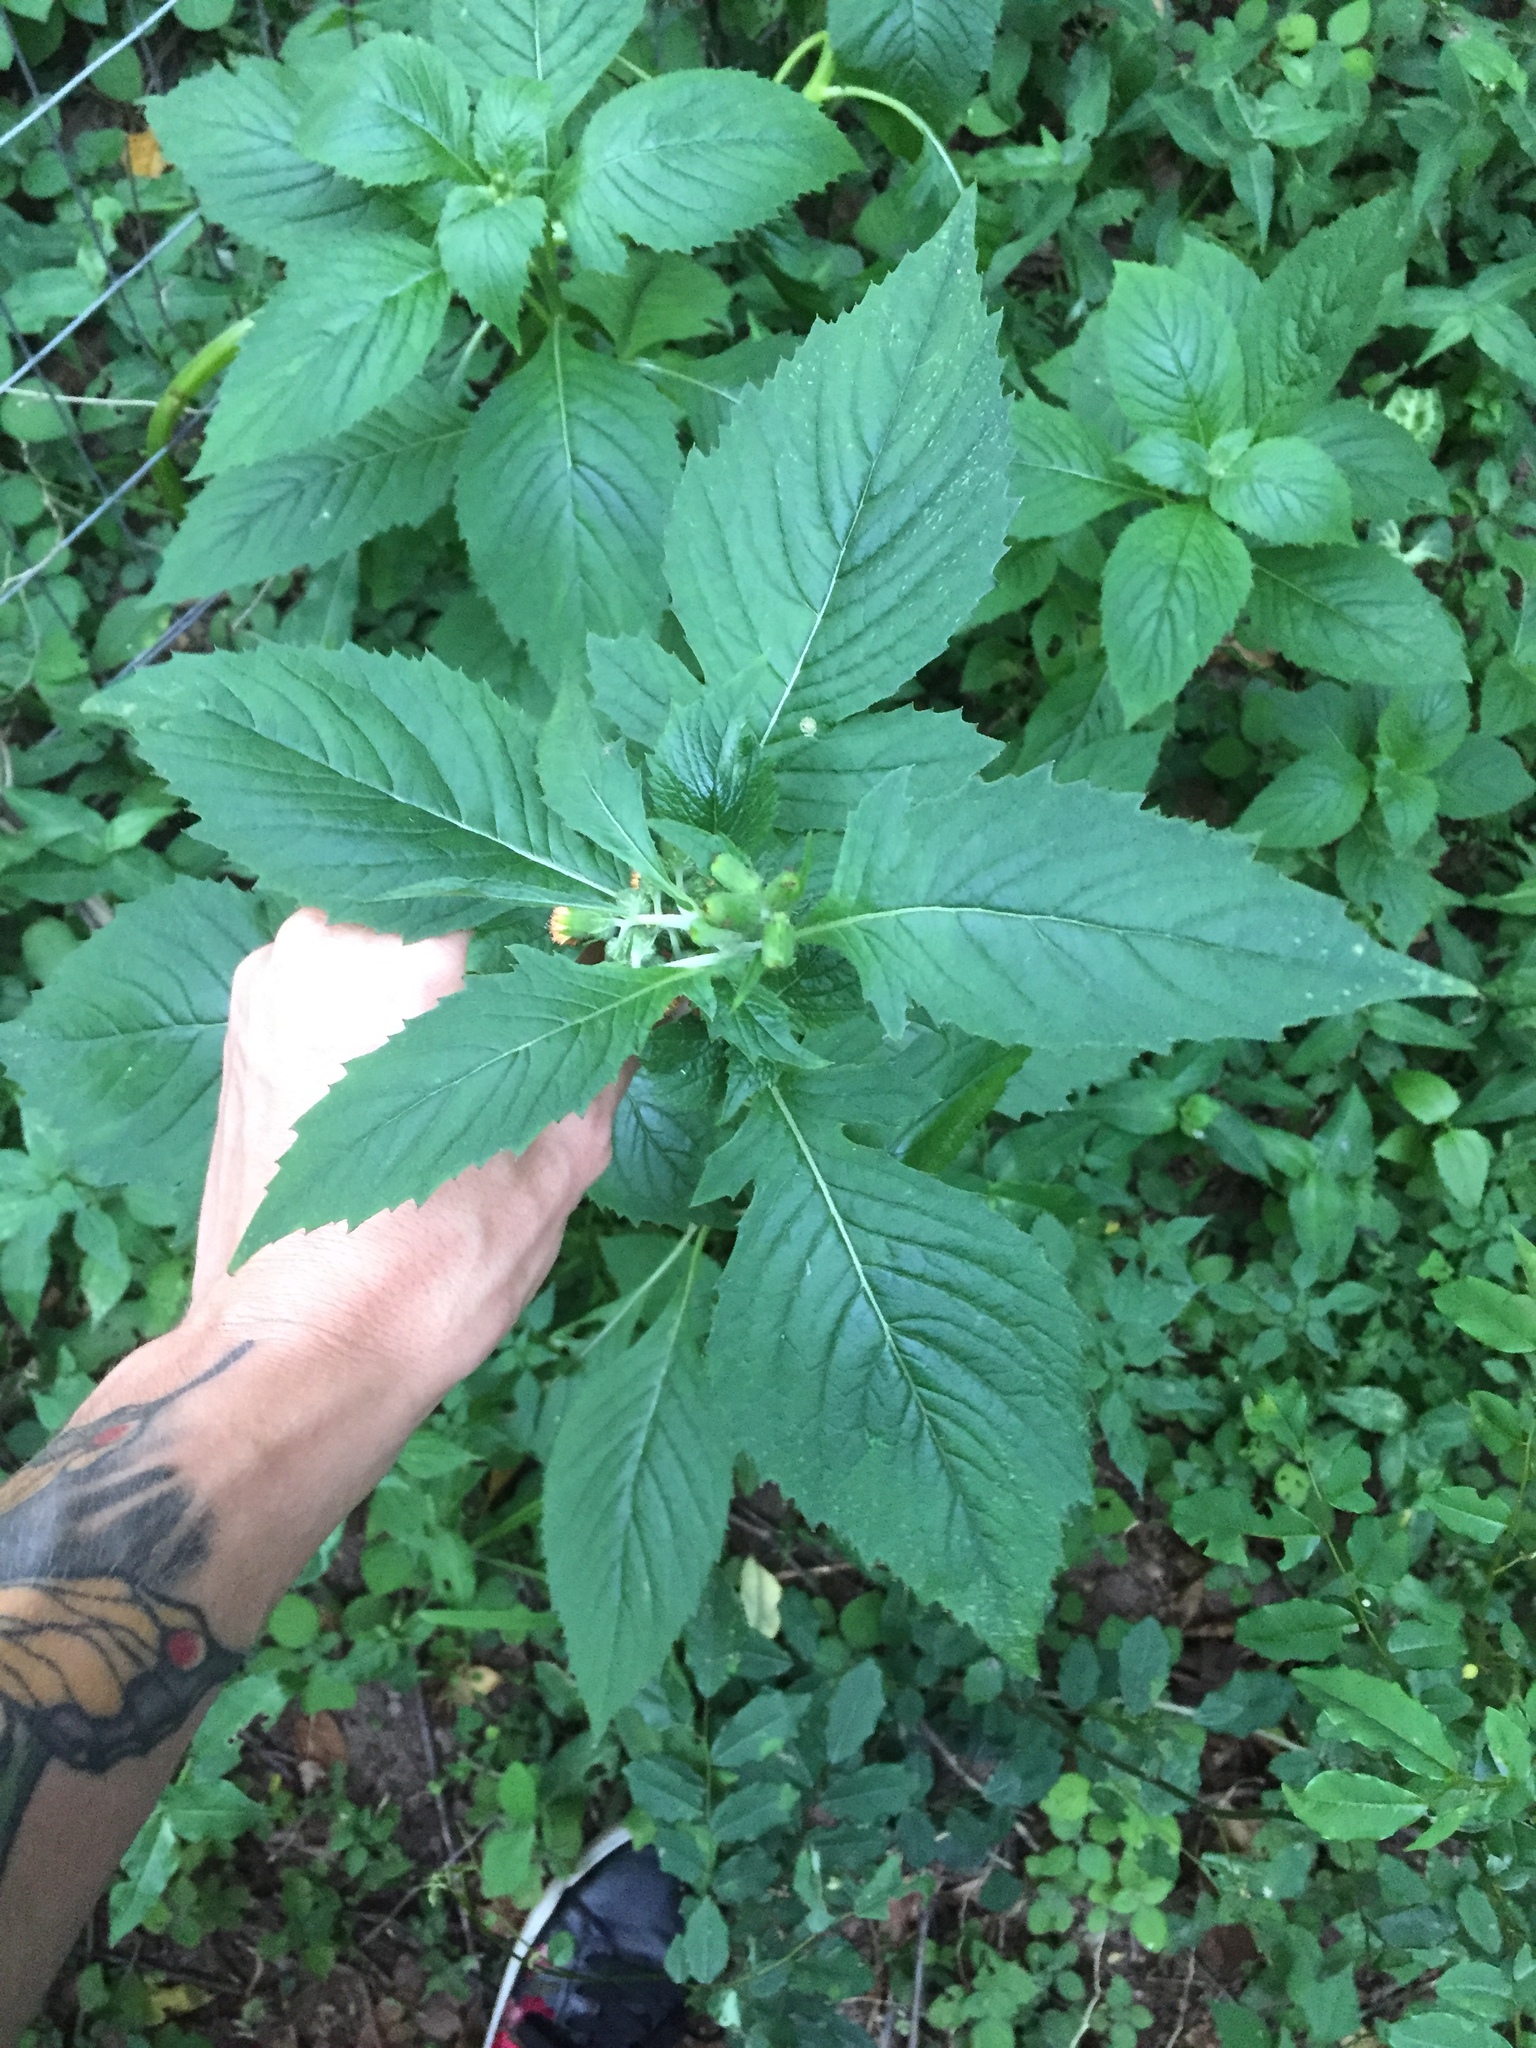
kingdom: Plantae
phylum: Tracheophyta
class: Magnoliopsida
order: Asterales
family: Asteraceae
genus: Crassocephalum
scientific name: Crassocephalum crepidioides
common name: Redflower ragleaf
